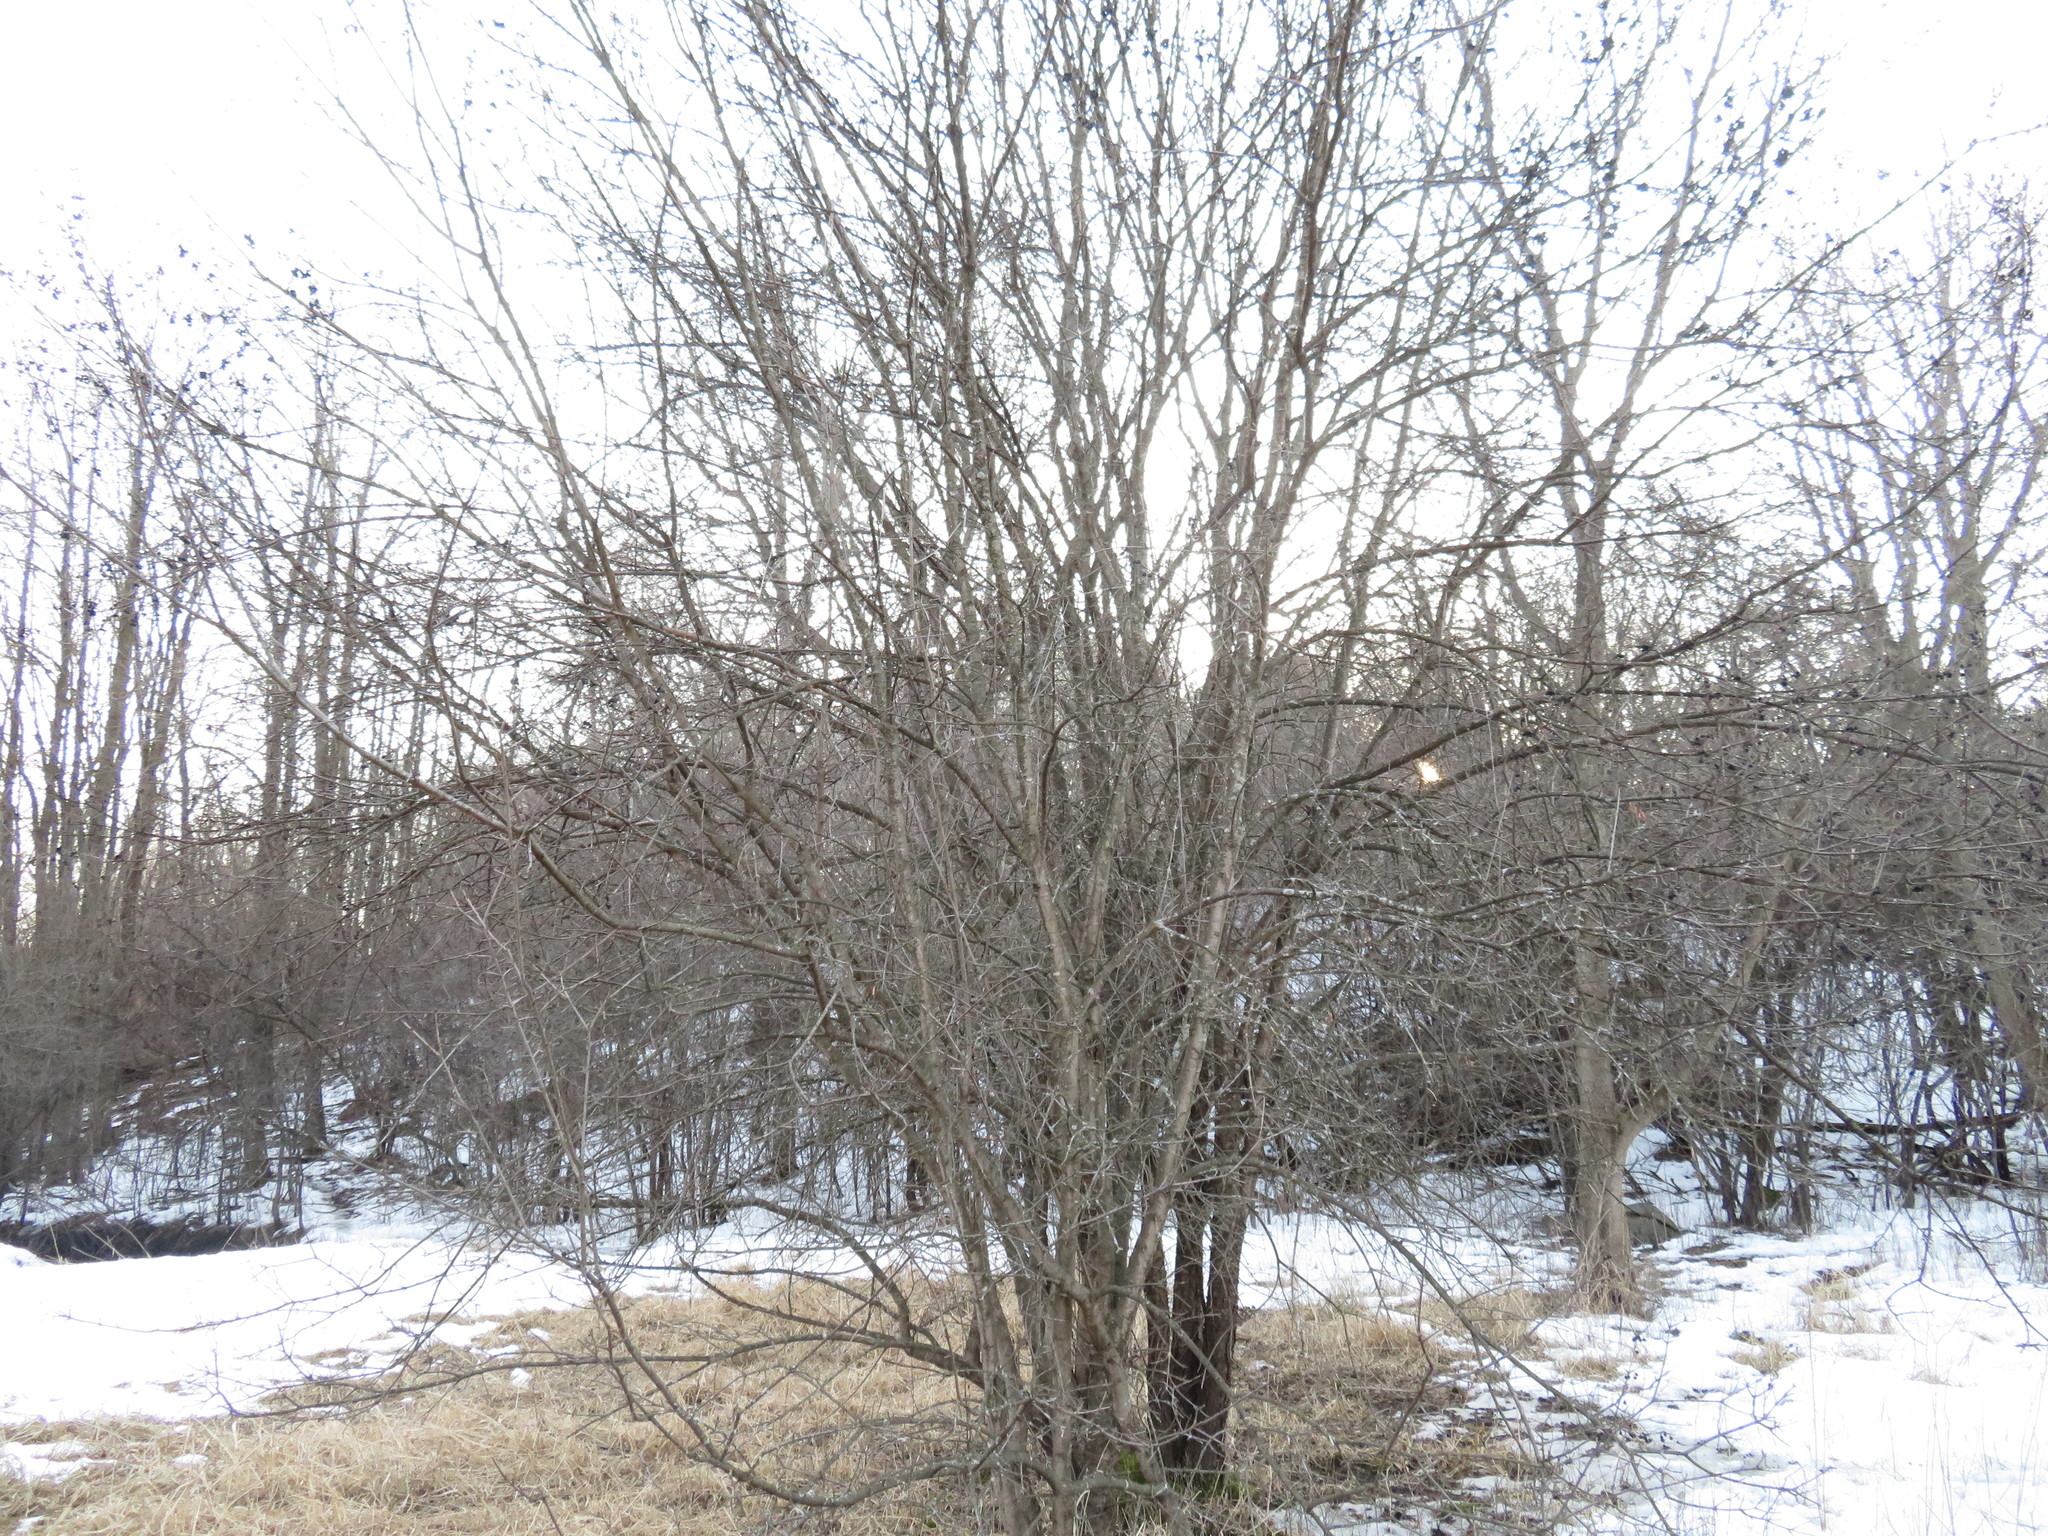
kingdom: Plantae
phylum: Tracheophyta
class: Magnoliopsida
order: Rosales
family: Rhamnaceae
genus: Rhamnus
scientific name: Rhamnus cathartica
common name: Common buckthorn
